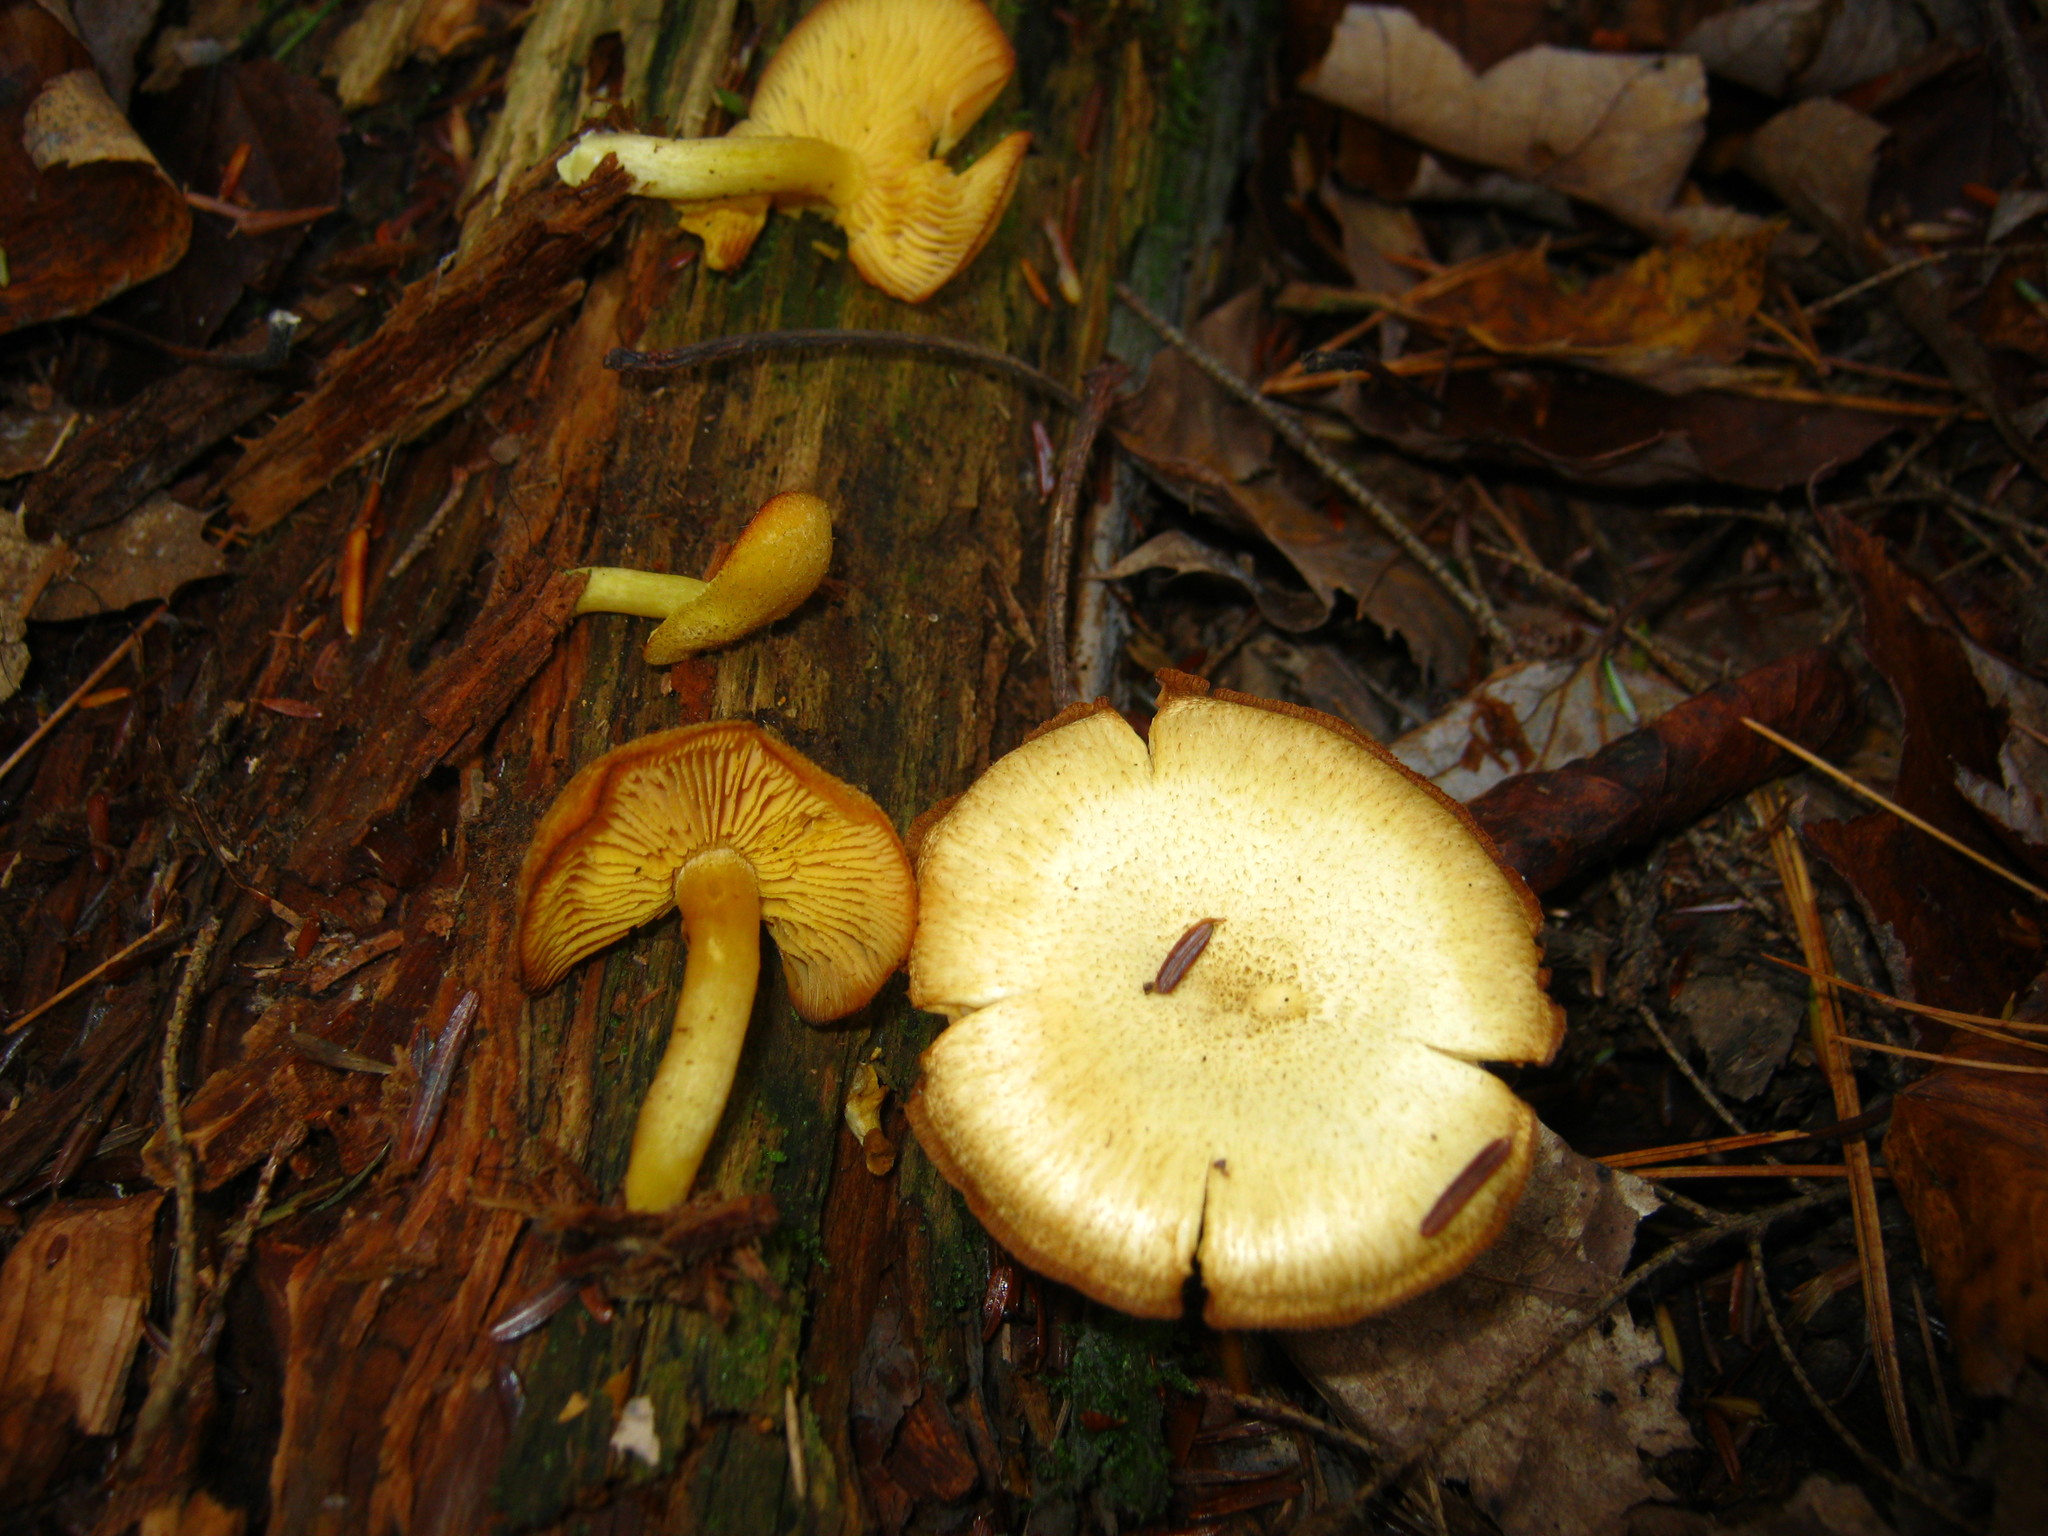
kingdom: Fungi
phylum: Basidiomycota
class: Agaricomycetes
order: Agaricales
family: Tricholomataceae
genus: Tricholomopsis
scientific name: Tricholomopsis sulfureoides
